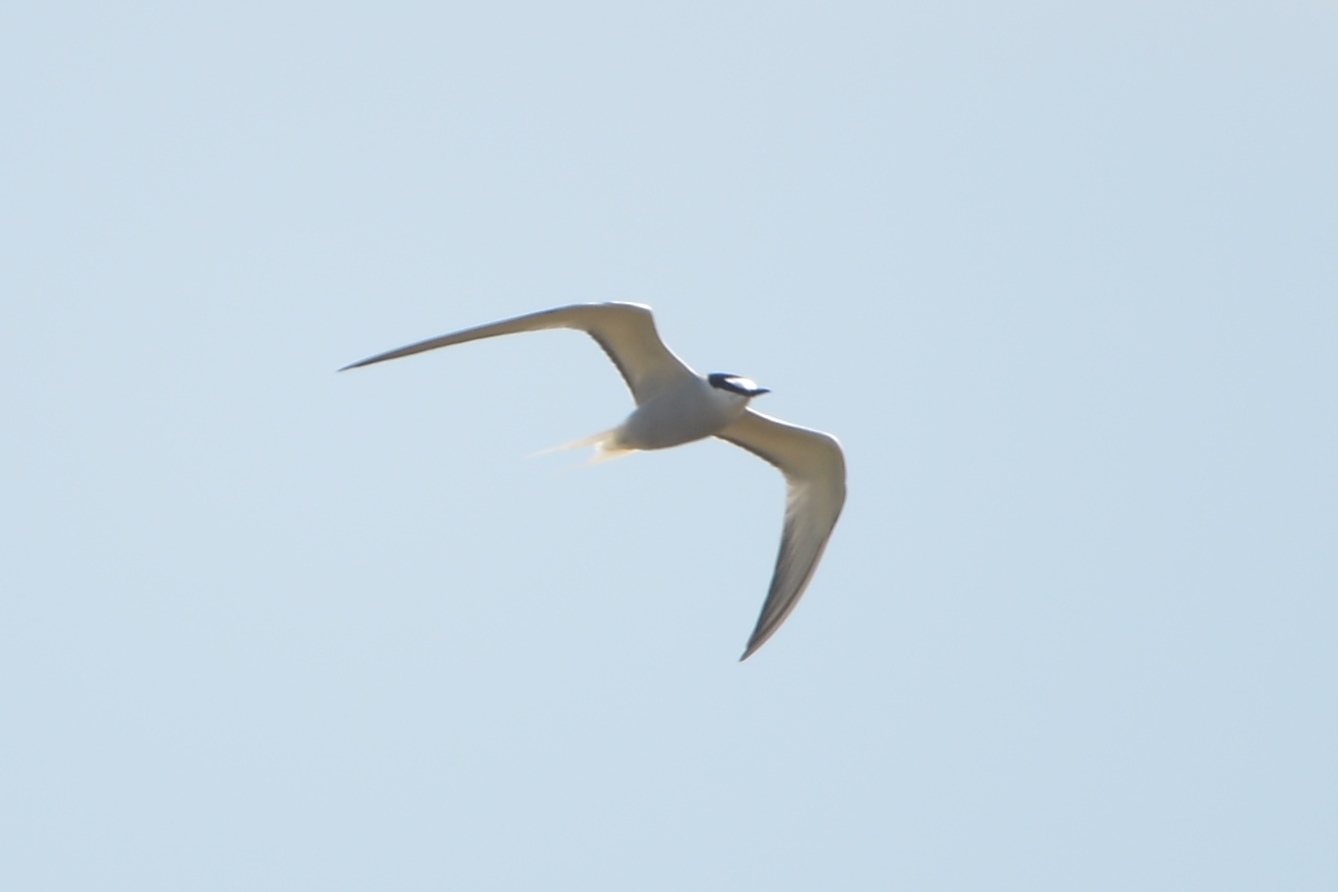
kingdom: Animalia
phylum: Chordata
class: Aves
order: Charadriiformes
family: Laridae
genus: Onychoprion
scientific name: Onychoprion aleuticus
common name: Aleutian tern
